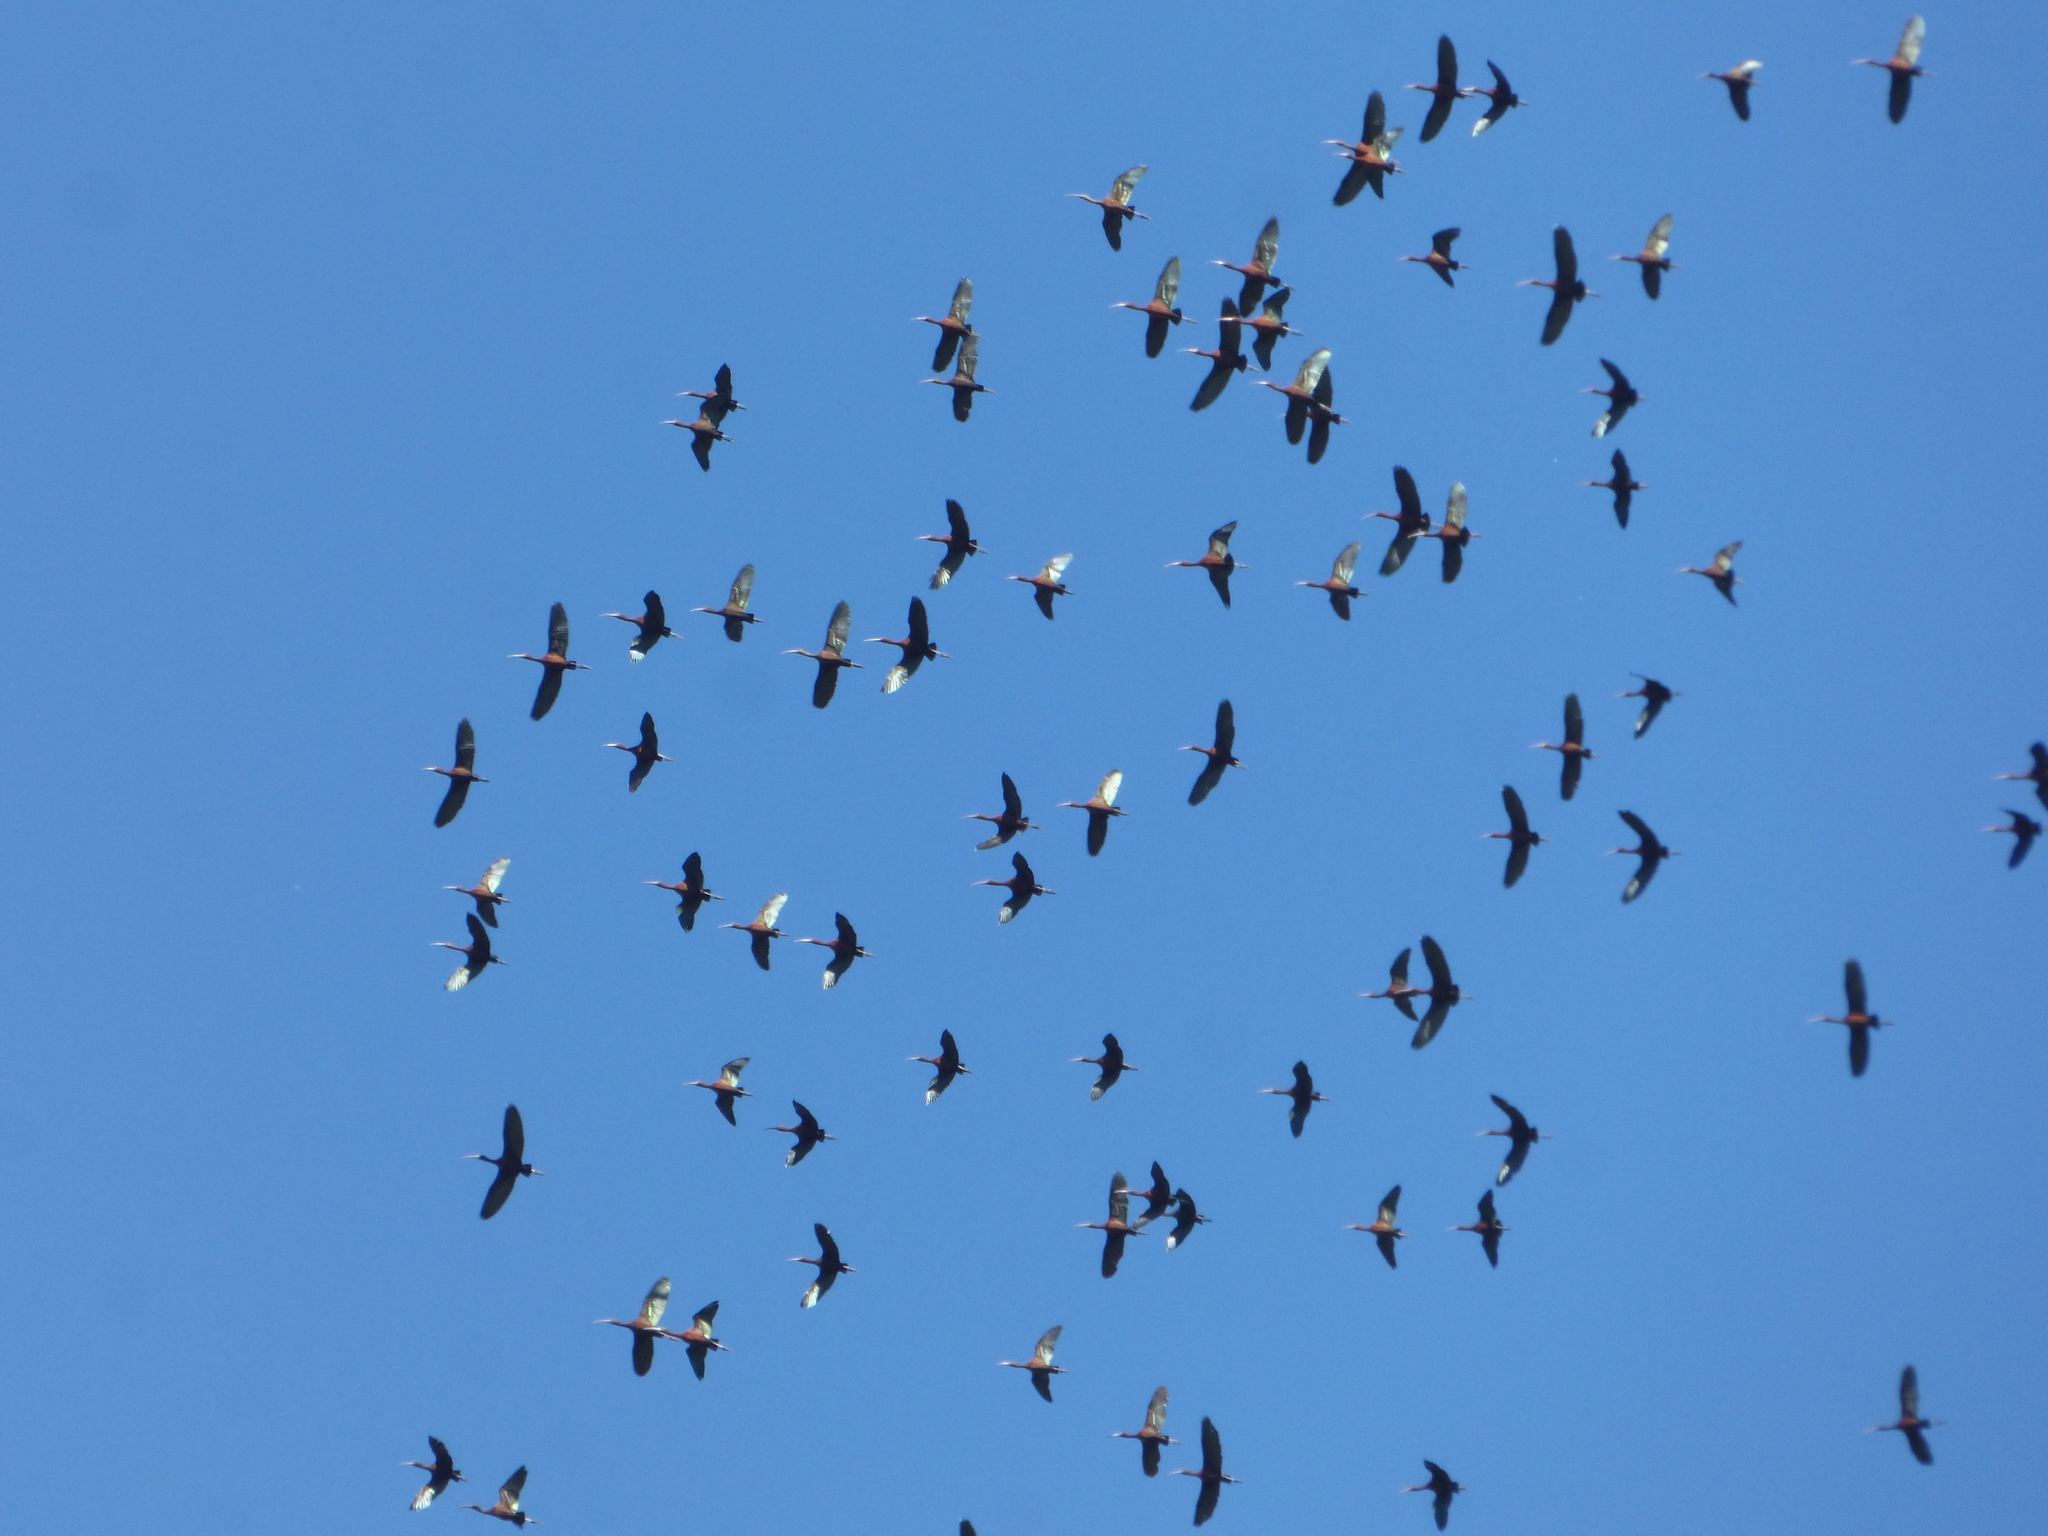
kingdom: Animalia
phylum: Chordata
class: Aves
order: Pelecaniformes
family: Threskiornithidae
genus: Plegadis
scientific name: Plegadis chihi
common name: White-faced ibis
